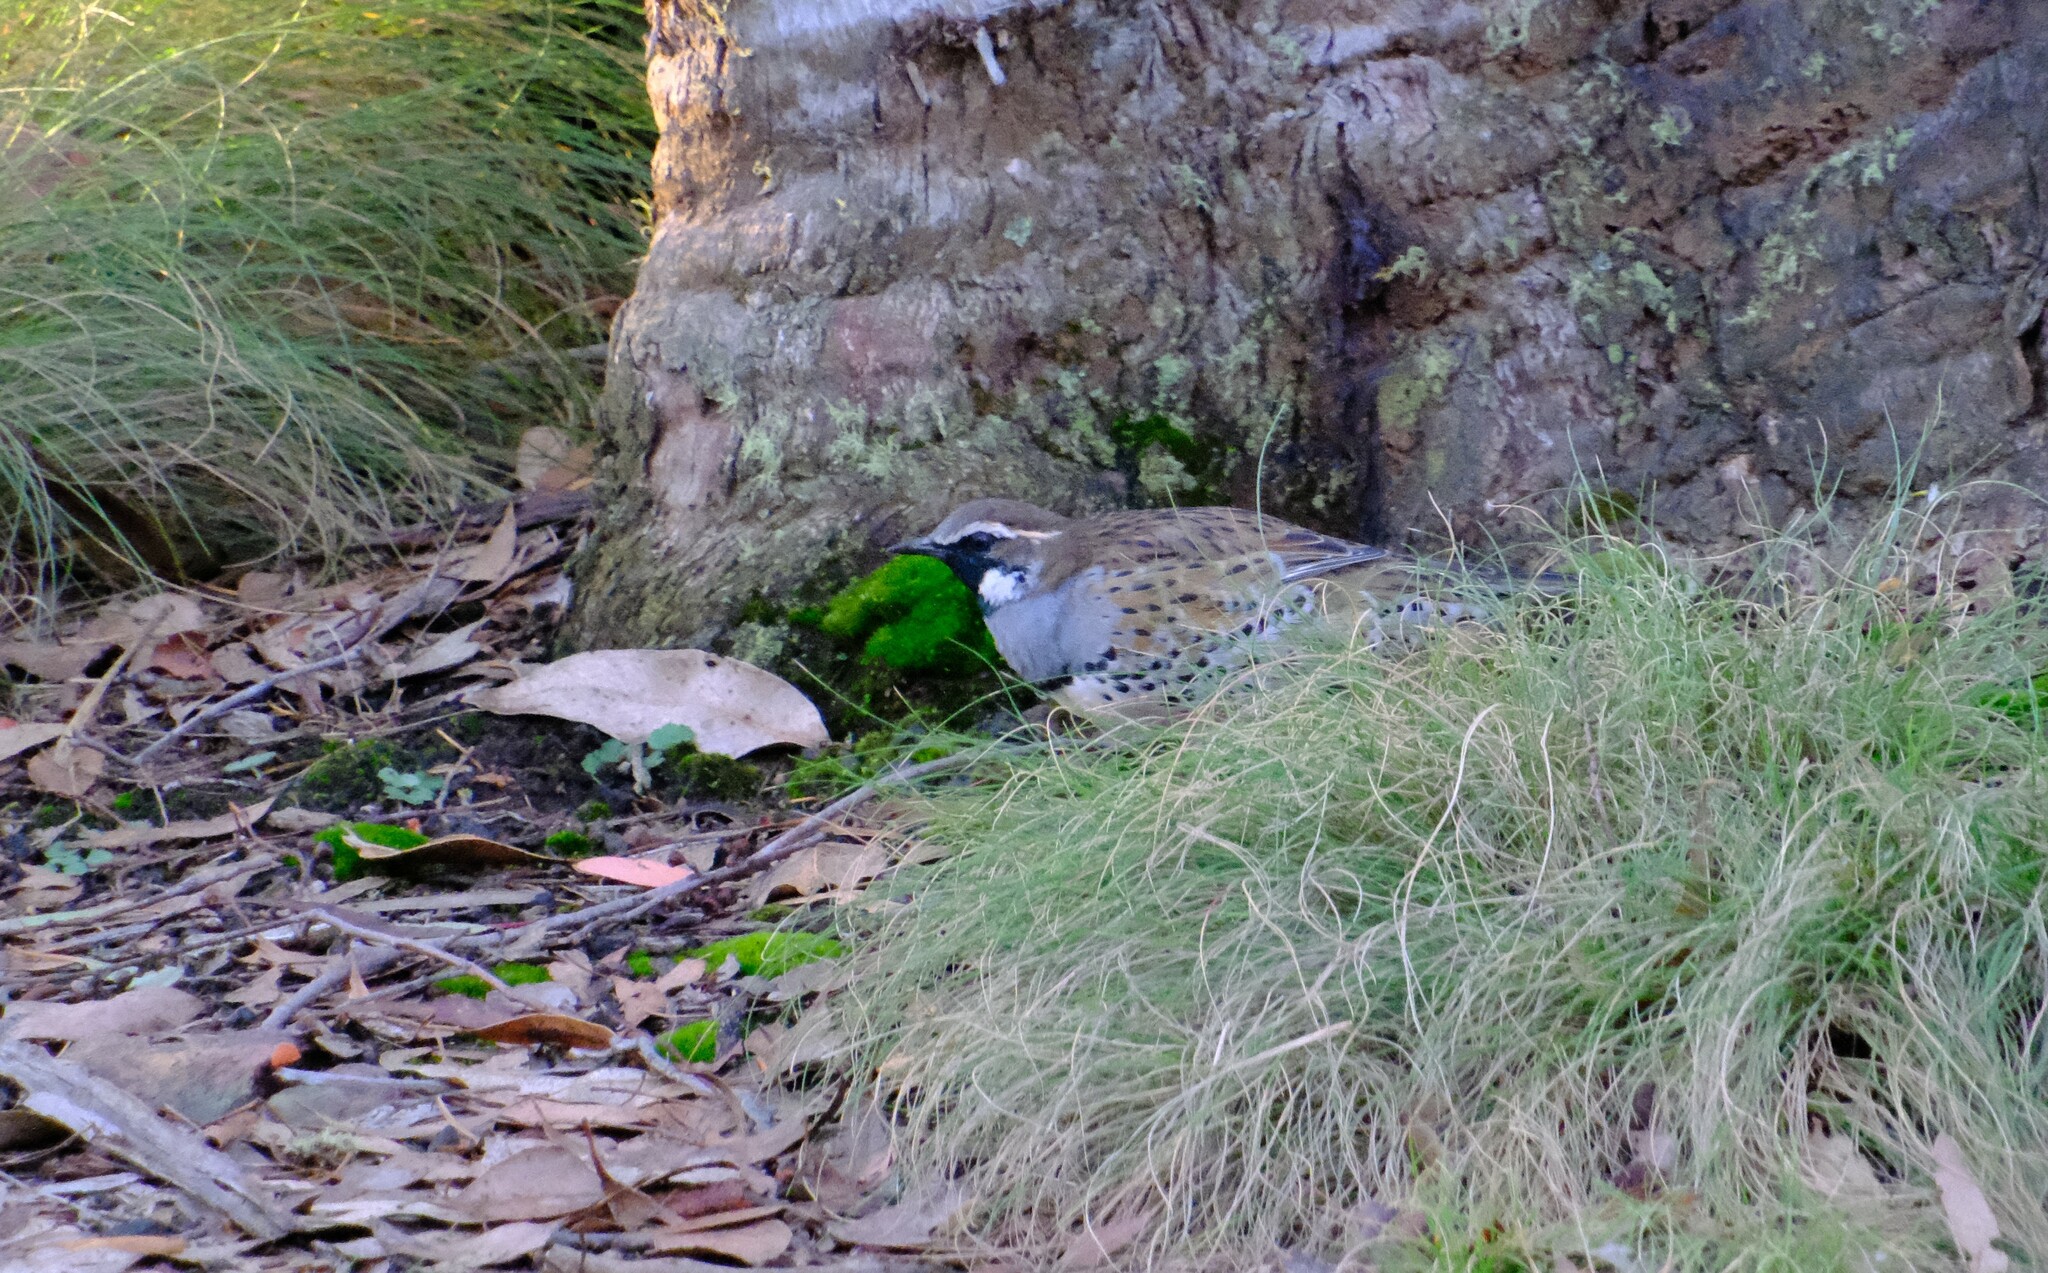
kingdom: Animalia
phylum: Chordata
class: Aves
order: Passeriformes
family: Psophodidae
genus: Cinclosoma
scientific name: Cinclosoma punctatum
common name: Spotted quail-thrush
